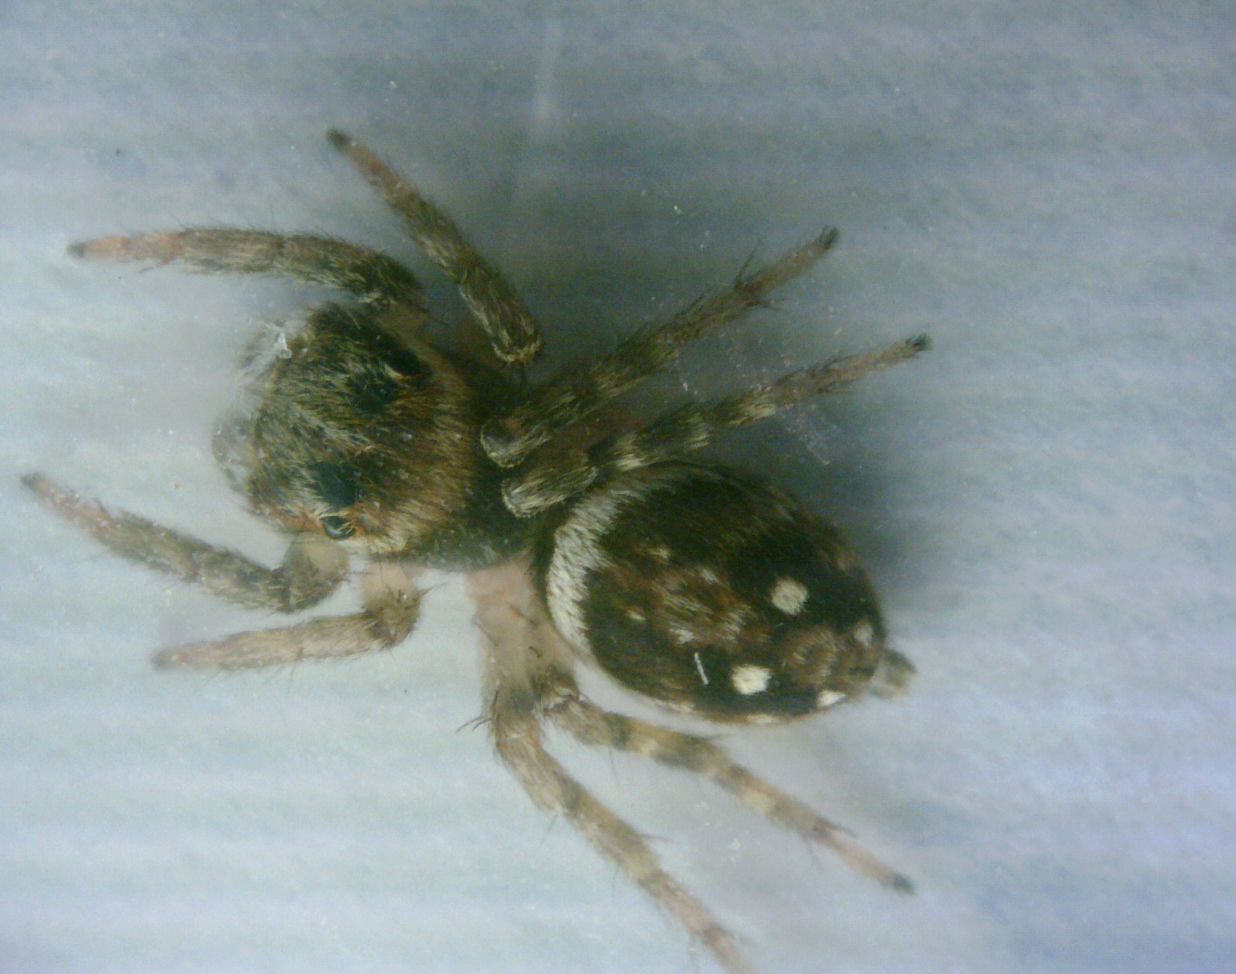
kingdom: Animalia
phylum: Arthropoda
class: Arachnida
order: Araneae
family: Salticidae
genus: Hasarius
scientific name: Hasarius adansoni
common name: Jumping spider
